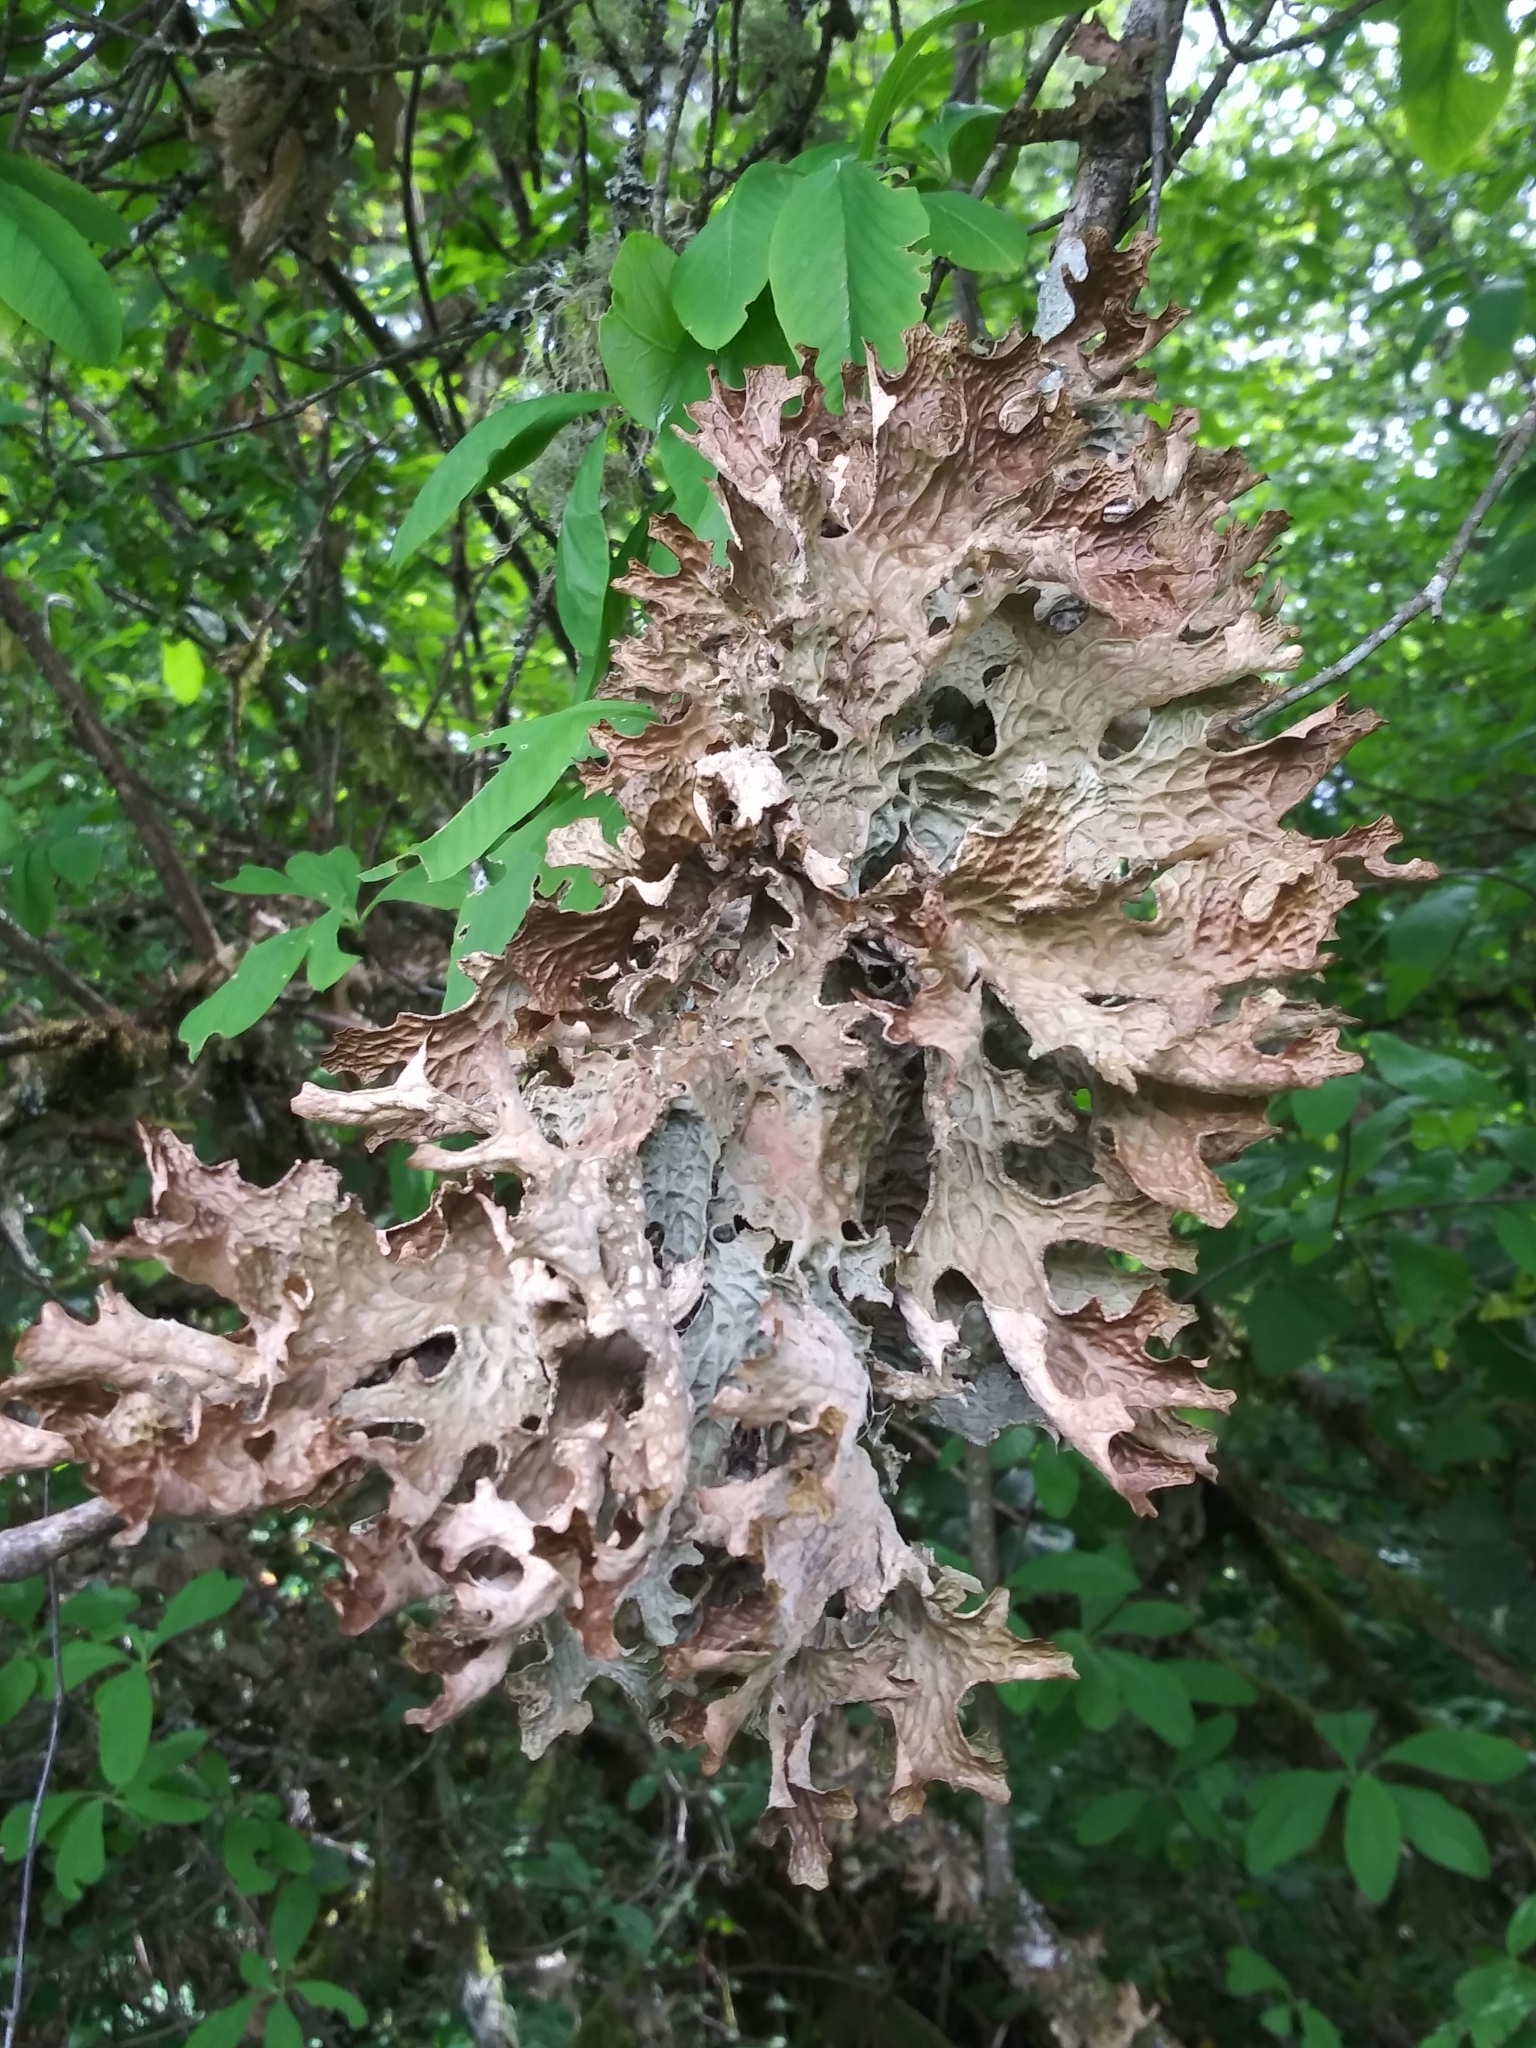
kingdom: Fungi
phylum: Ascomycota
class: Lecanoromycetes
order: Peltigerales
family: Lobariaceae
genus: Lobaria
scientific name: Lobaria pulmonaria
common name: Lungwort
